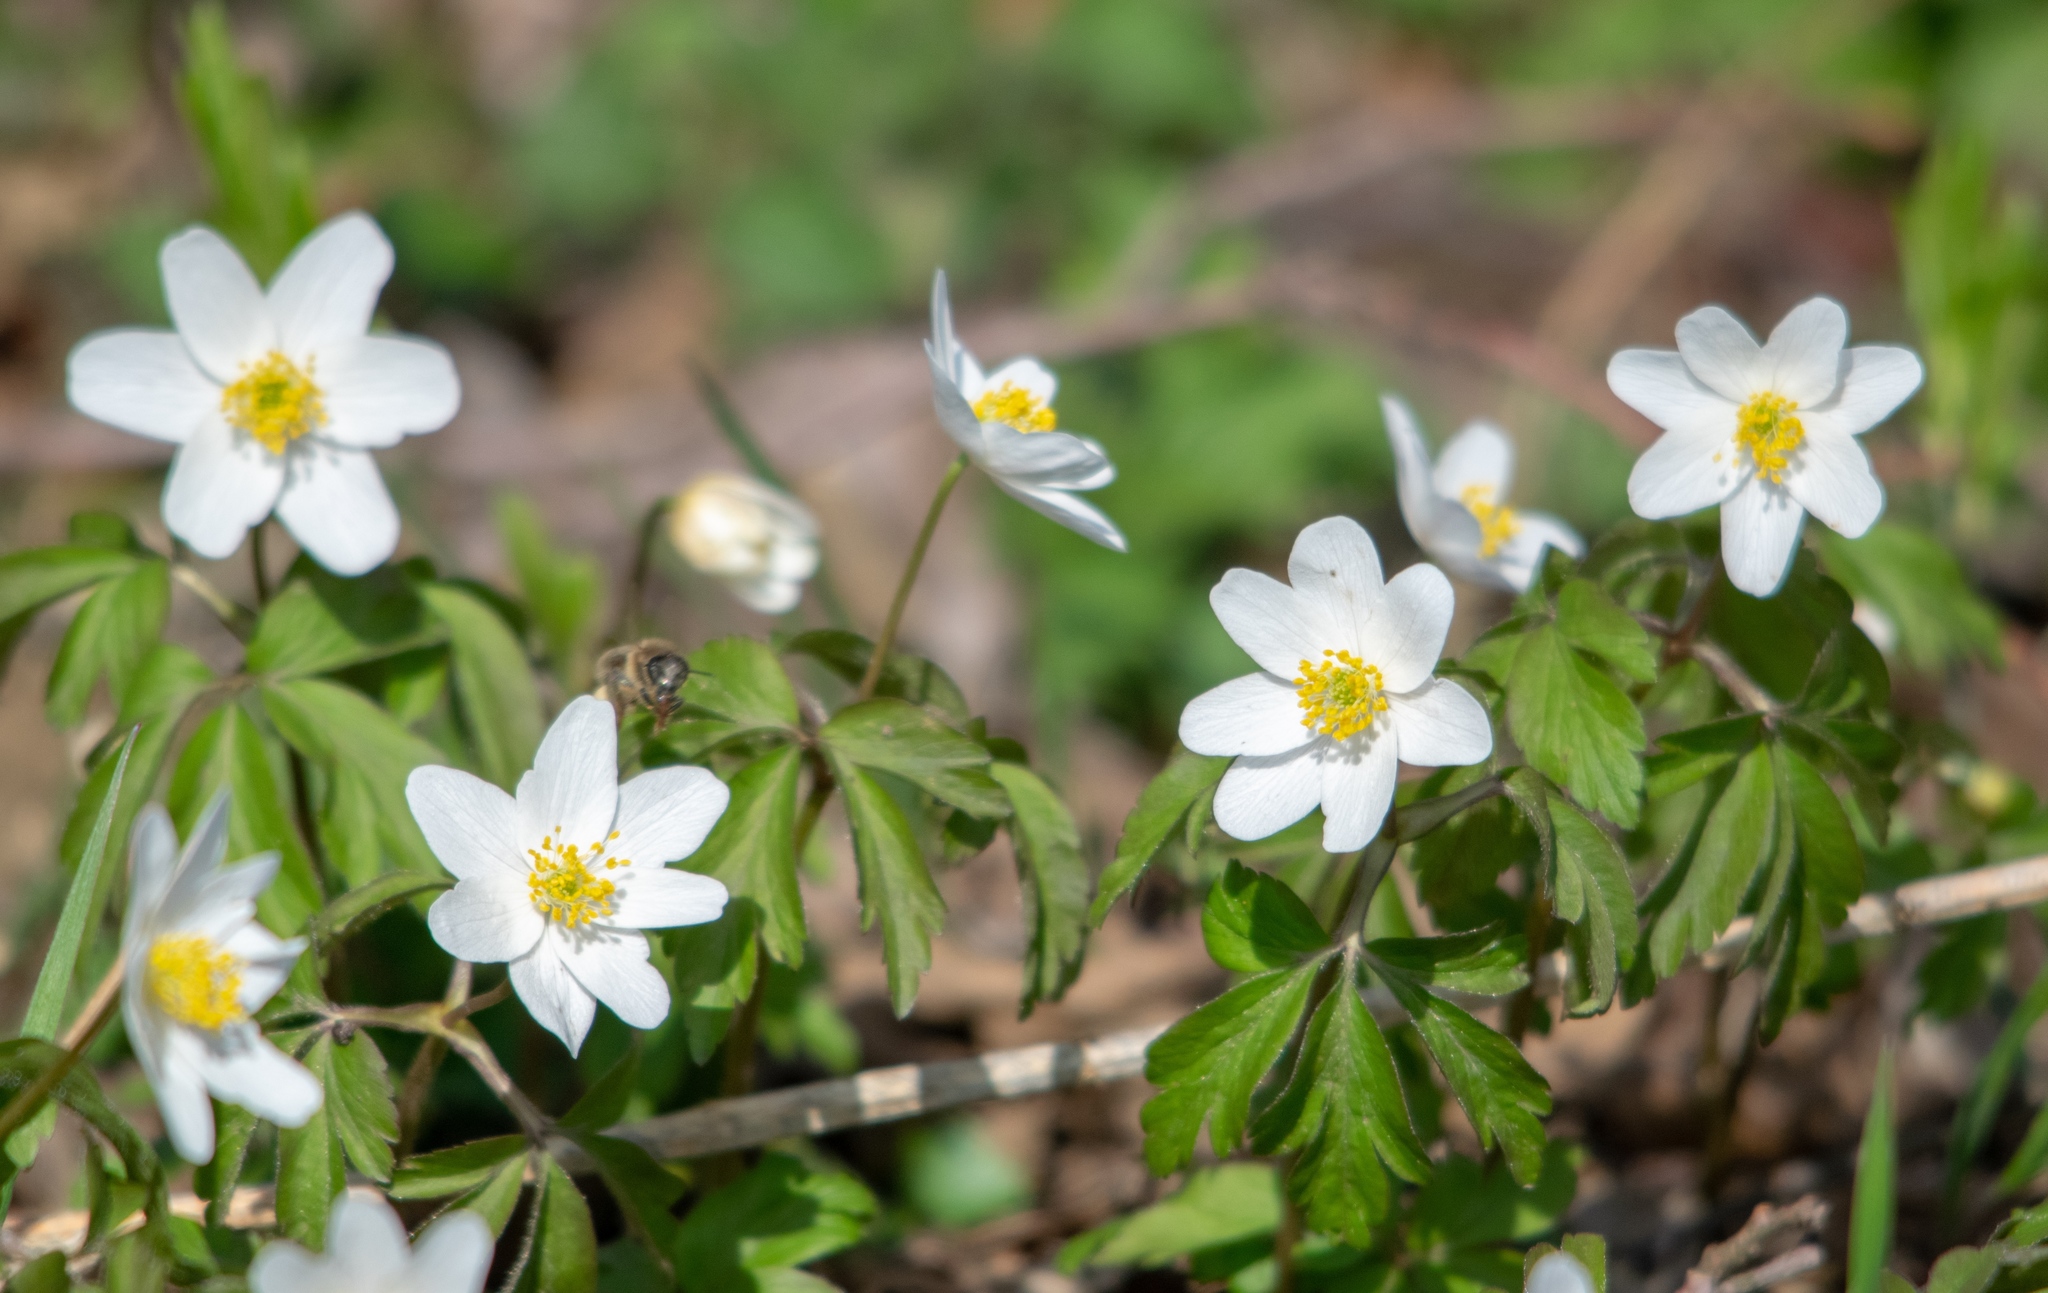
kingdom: Plantae
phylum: Tracheophyta
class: Magnoliopsida
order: Ranunculales
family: Ranunculaceae
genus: Anemone
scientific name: Anemone nemorosa
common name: Wood anemone
